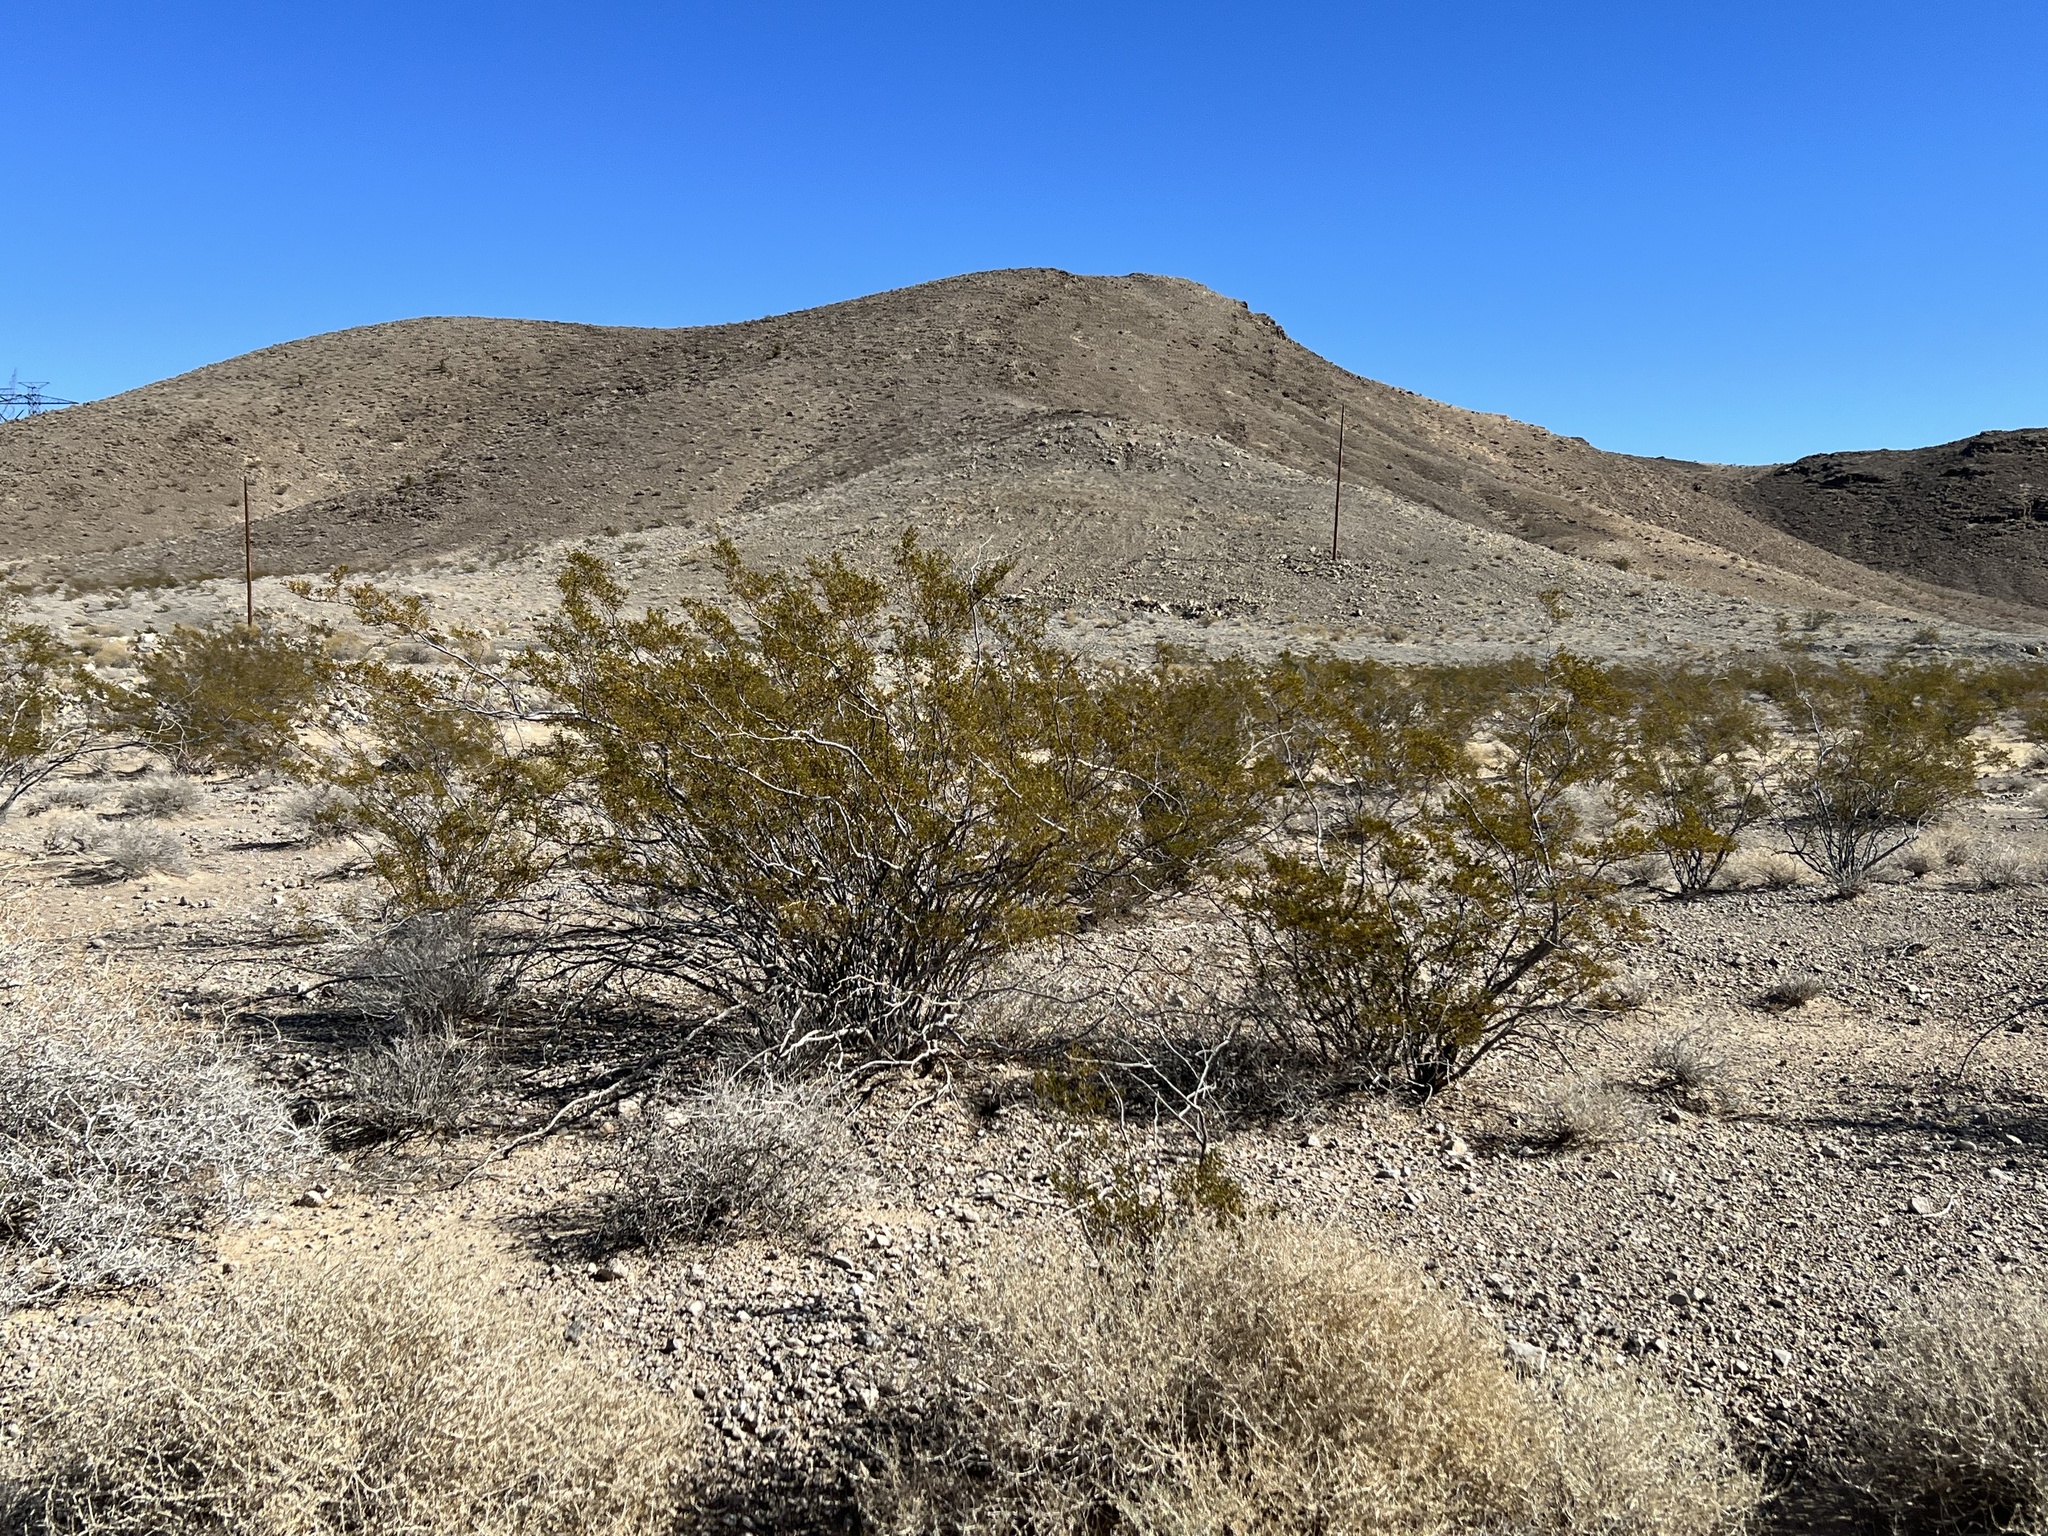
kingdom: Plantae
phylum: Tracheophyta
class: Magnoliopsida
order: Zygophyllales
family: Zygophyllaceae
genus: Larrea
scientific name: Larrea tridentata
